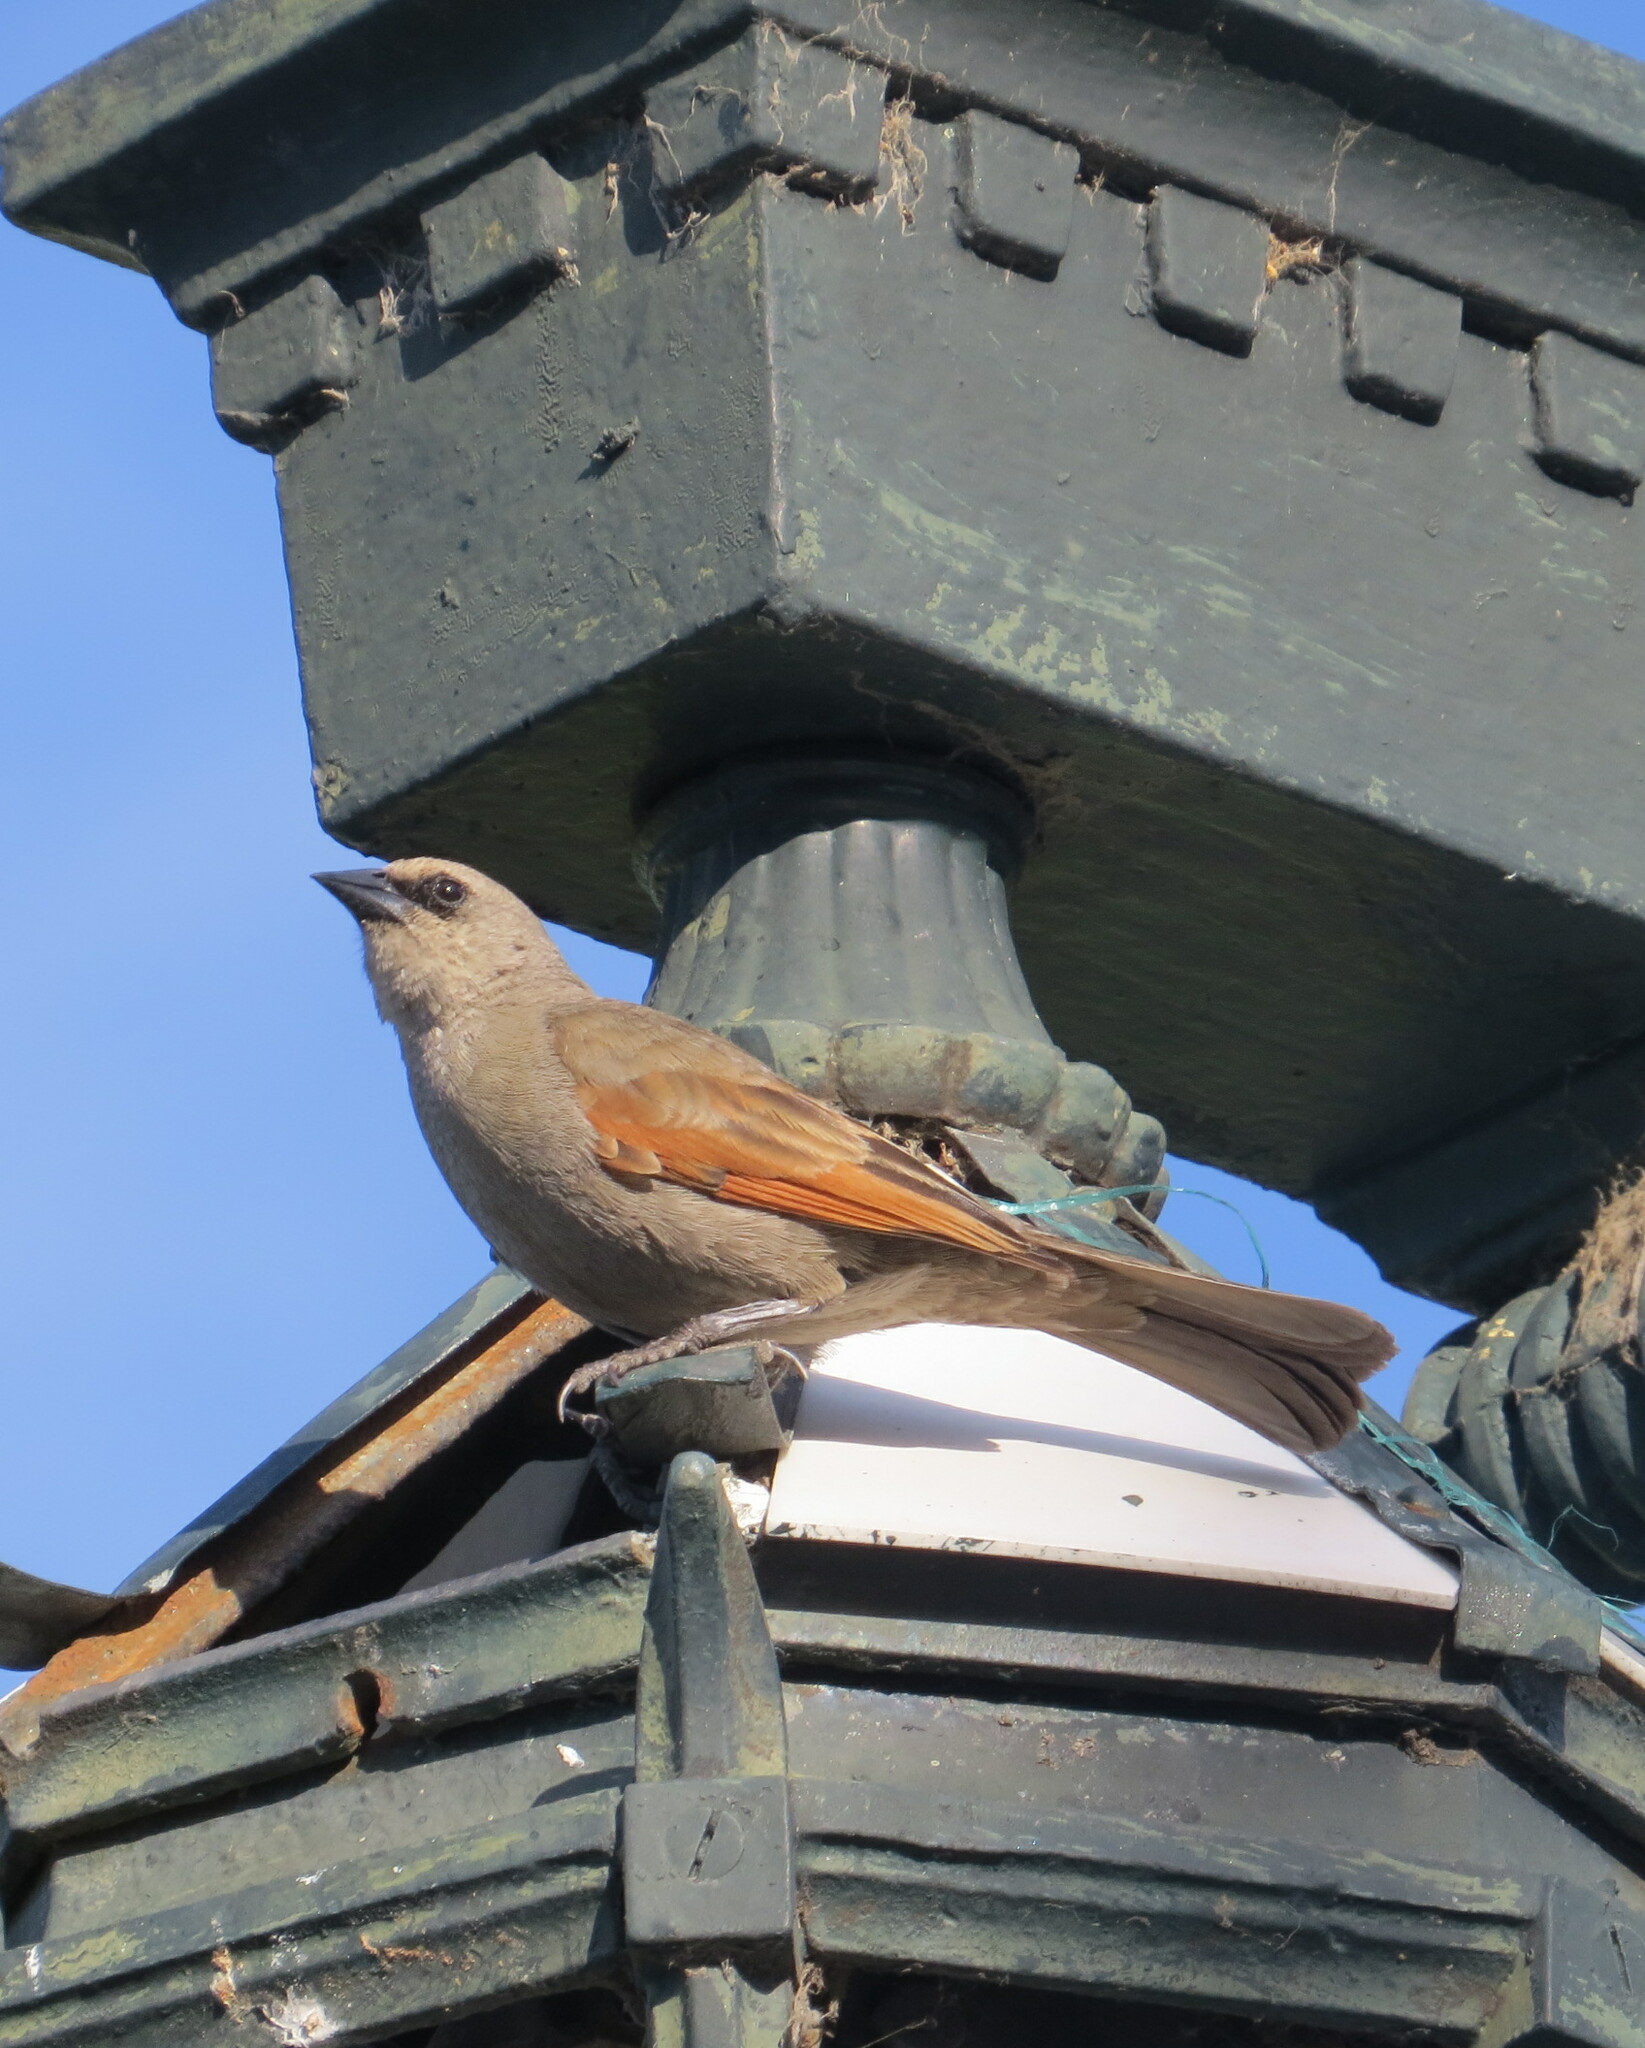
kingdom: Animalia
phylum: Chordata
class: Aves
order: Passeriformes
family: Icteridae
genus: Agelaioides
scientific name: Agelaioides badius
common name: Baywing
